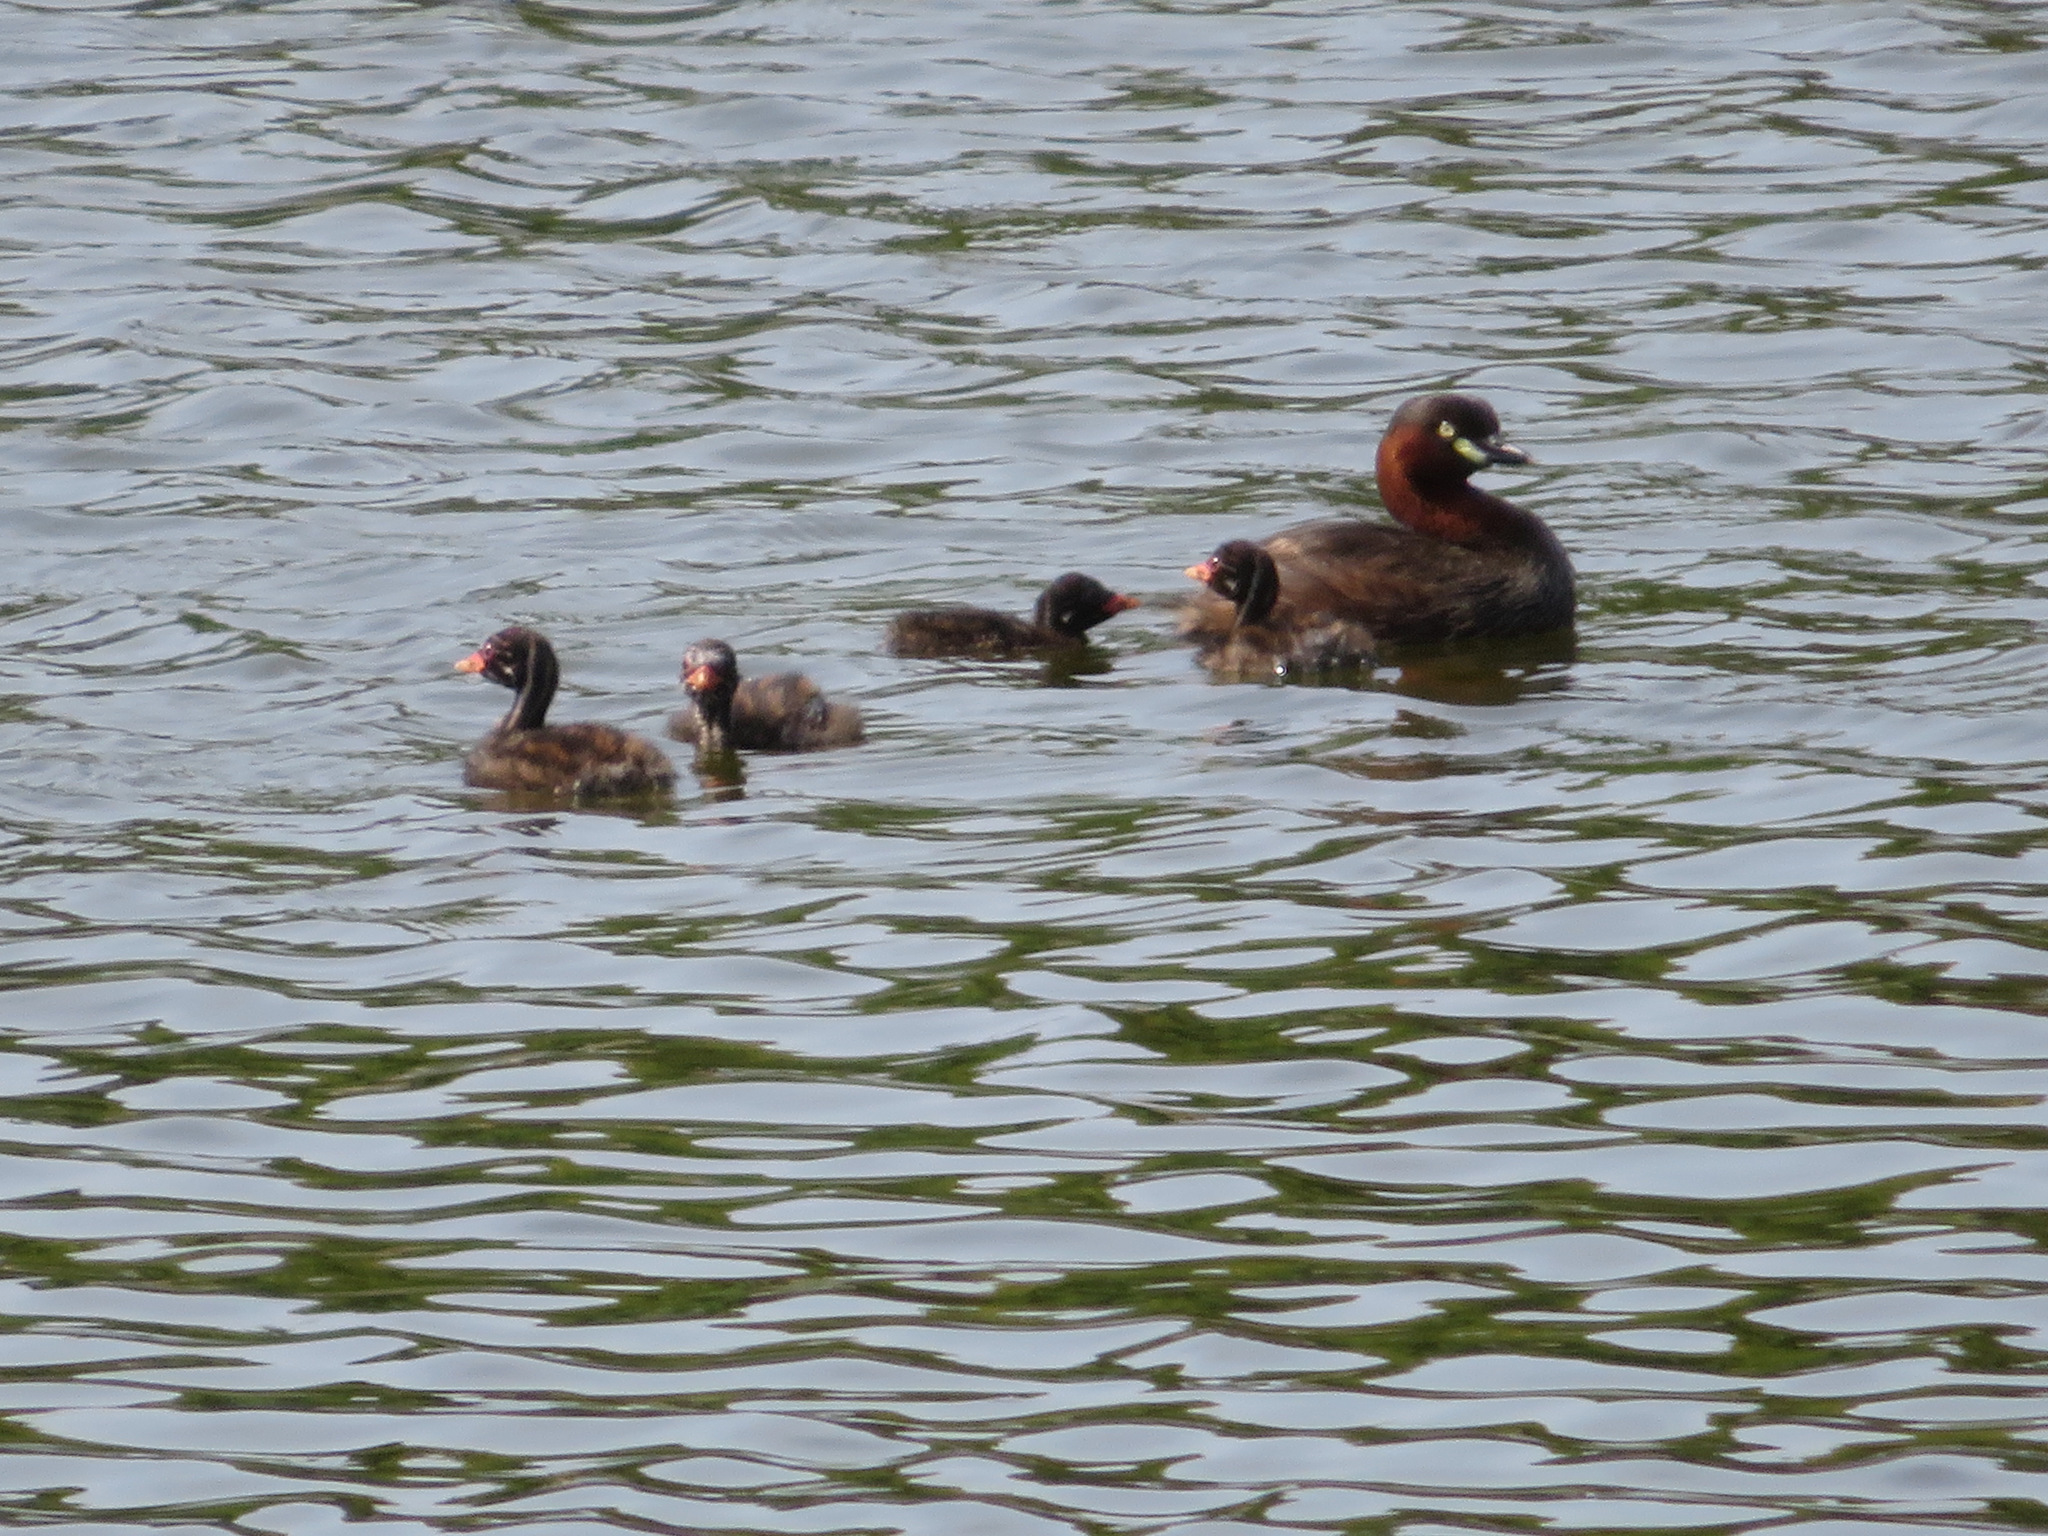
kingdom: Animalia
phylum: Chordata
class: Aves
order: Podicipediformes
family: Podicipedidae
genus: Tachybaptus
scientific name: Tachybaptus ruficollis
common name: Little grebe
